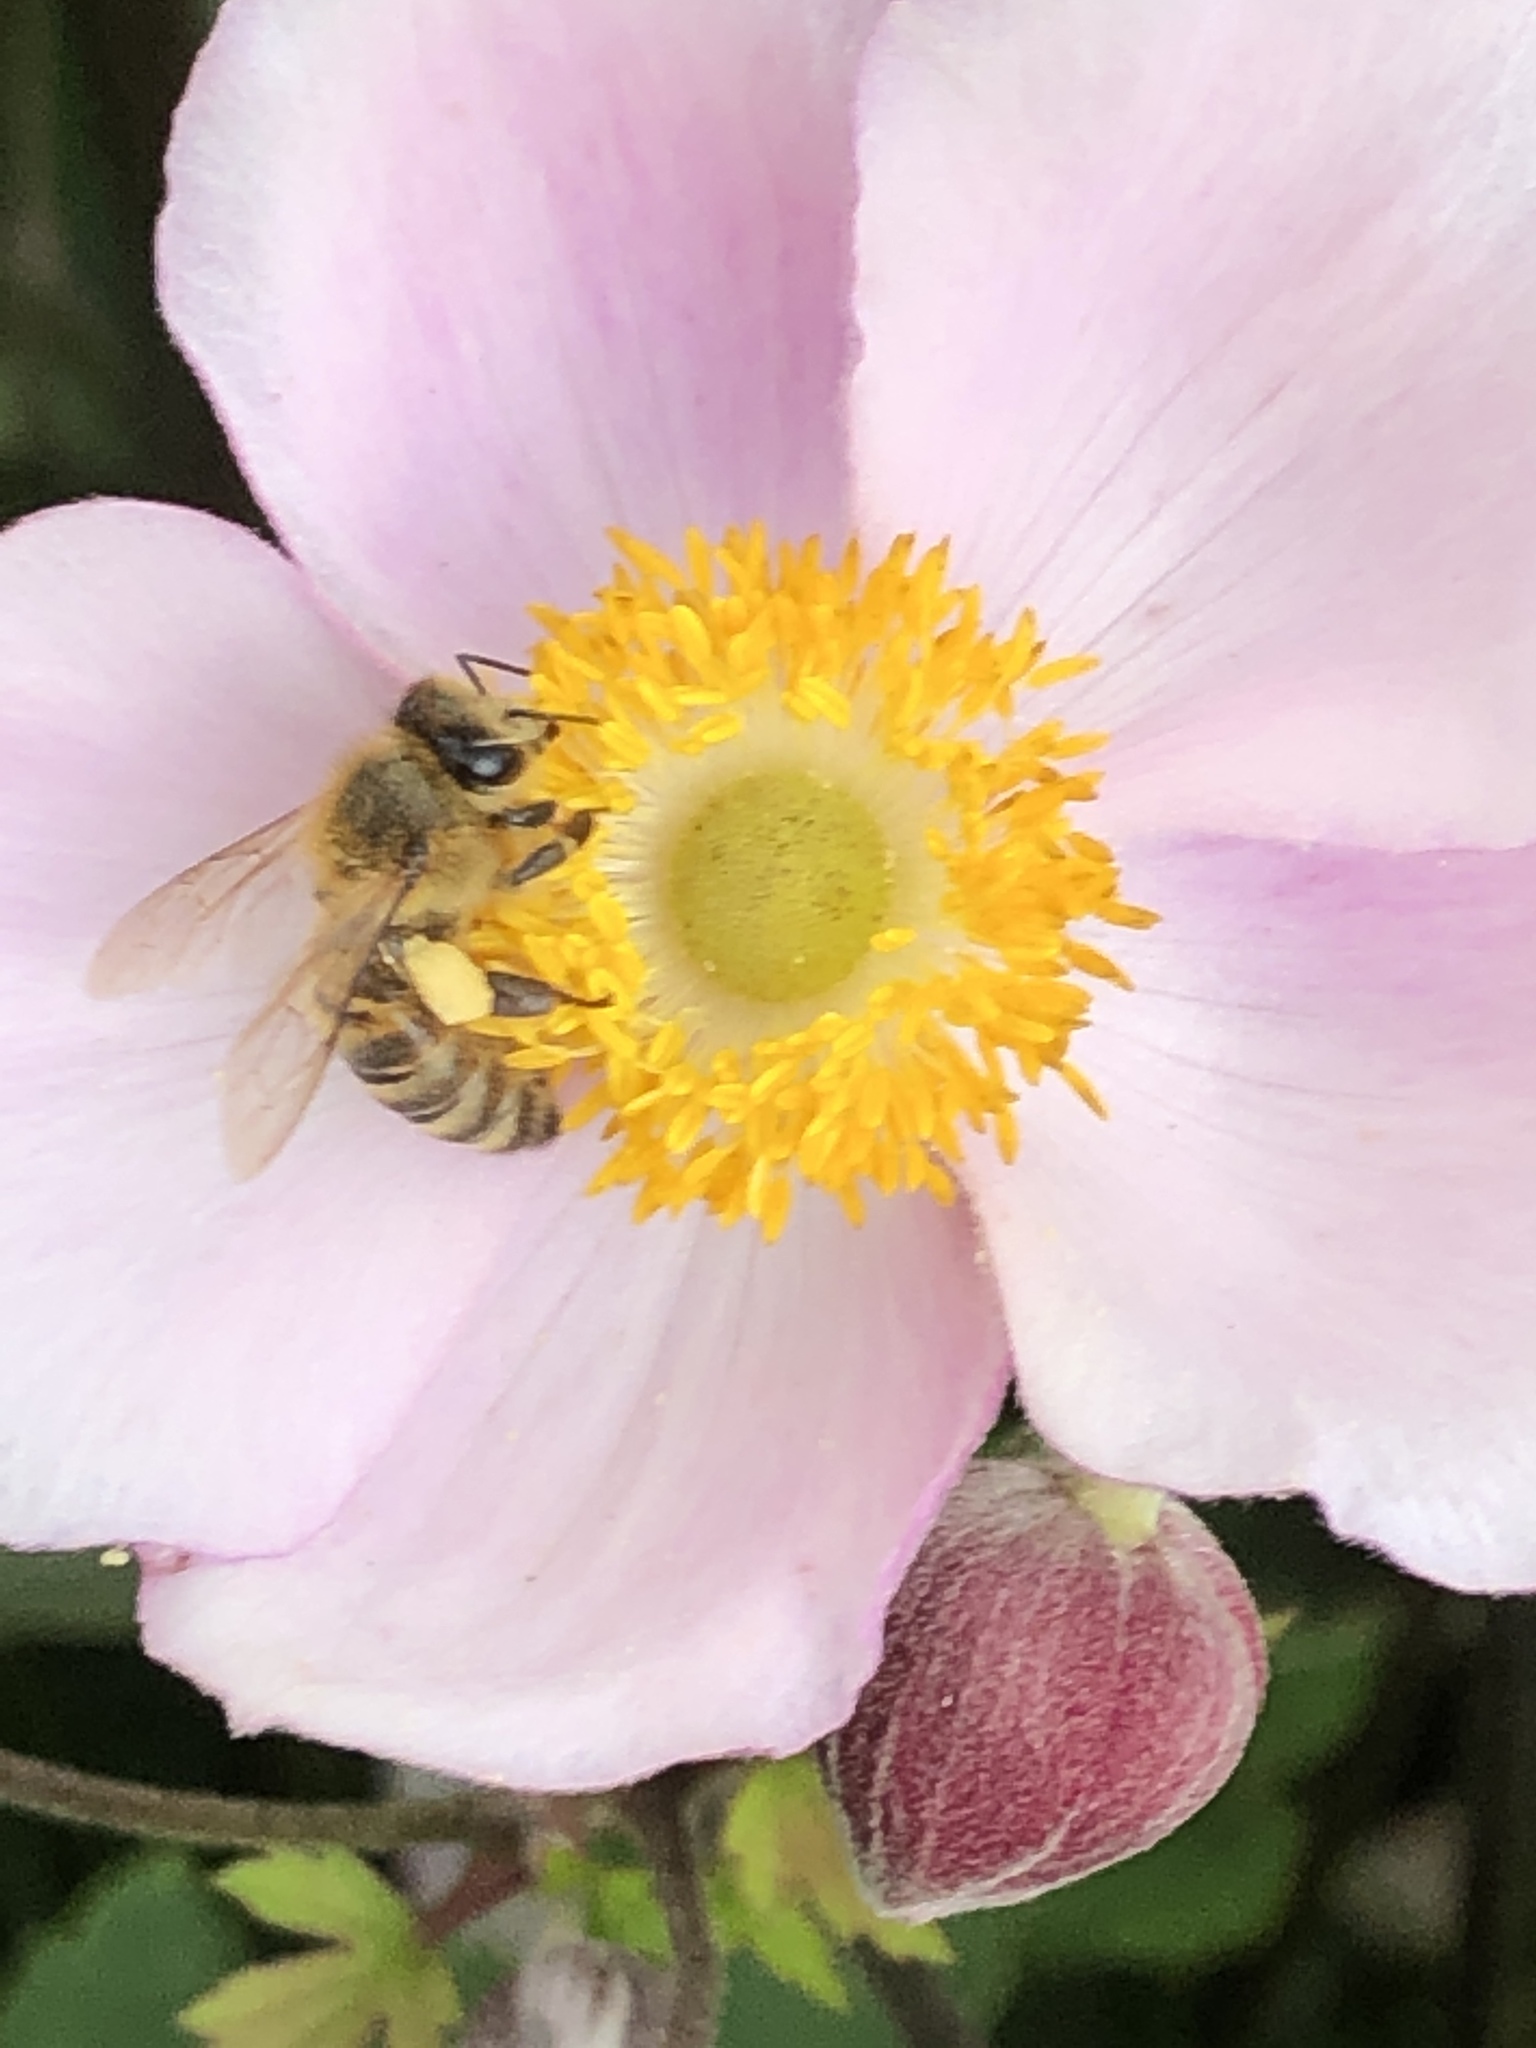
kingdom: Animalia
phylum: Arthropoda
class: Insecta
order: Hymenoptera
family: Apidae
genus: Apis
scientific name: Apis mellifera
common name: Honey bee
